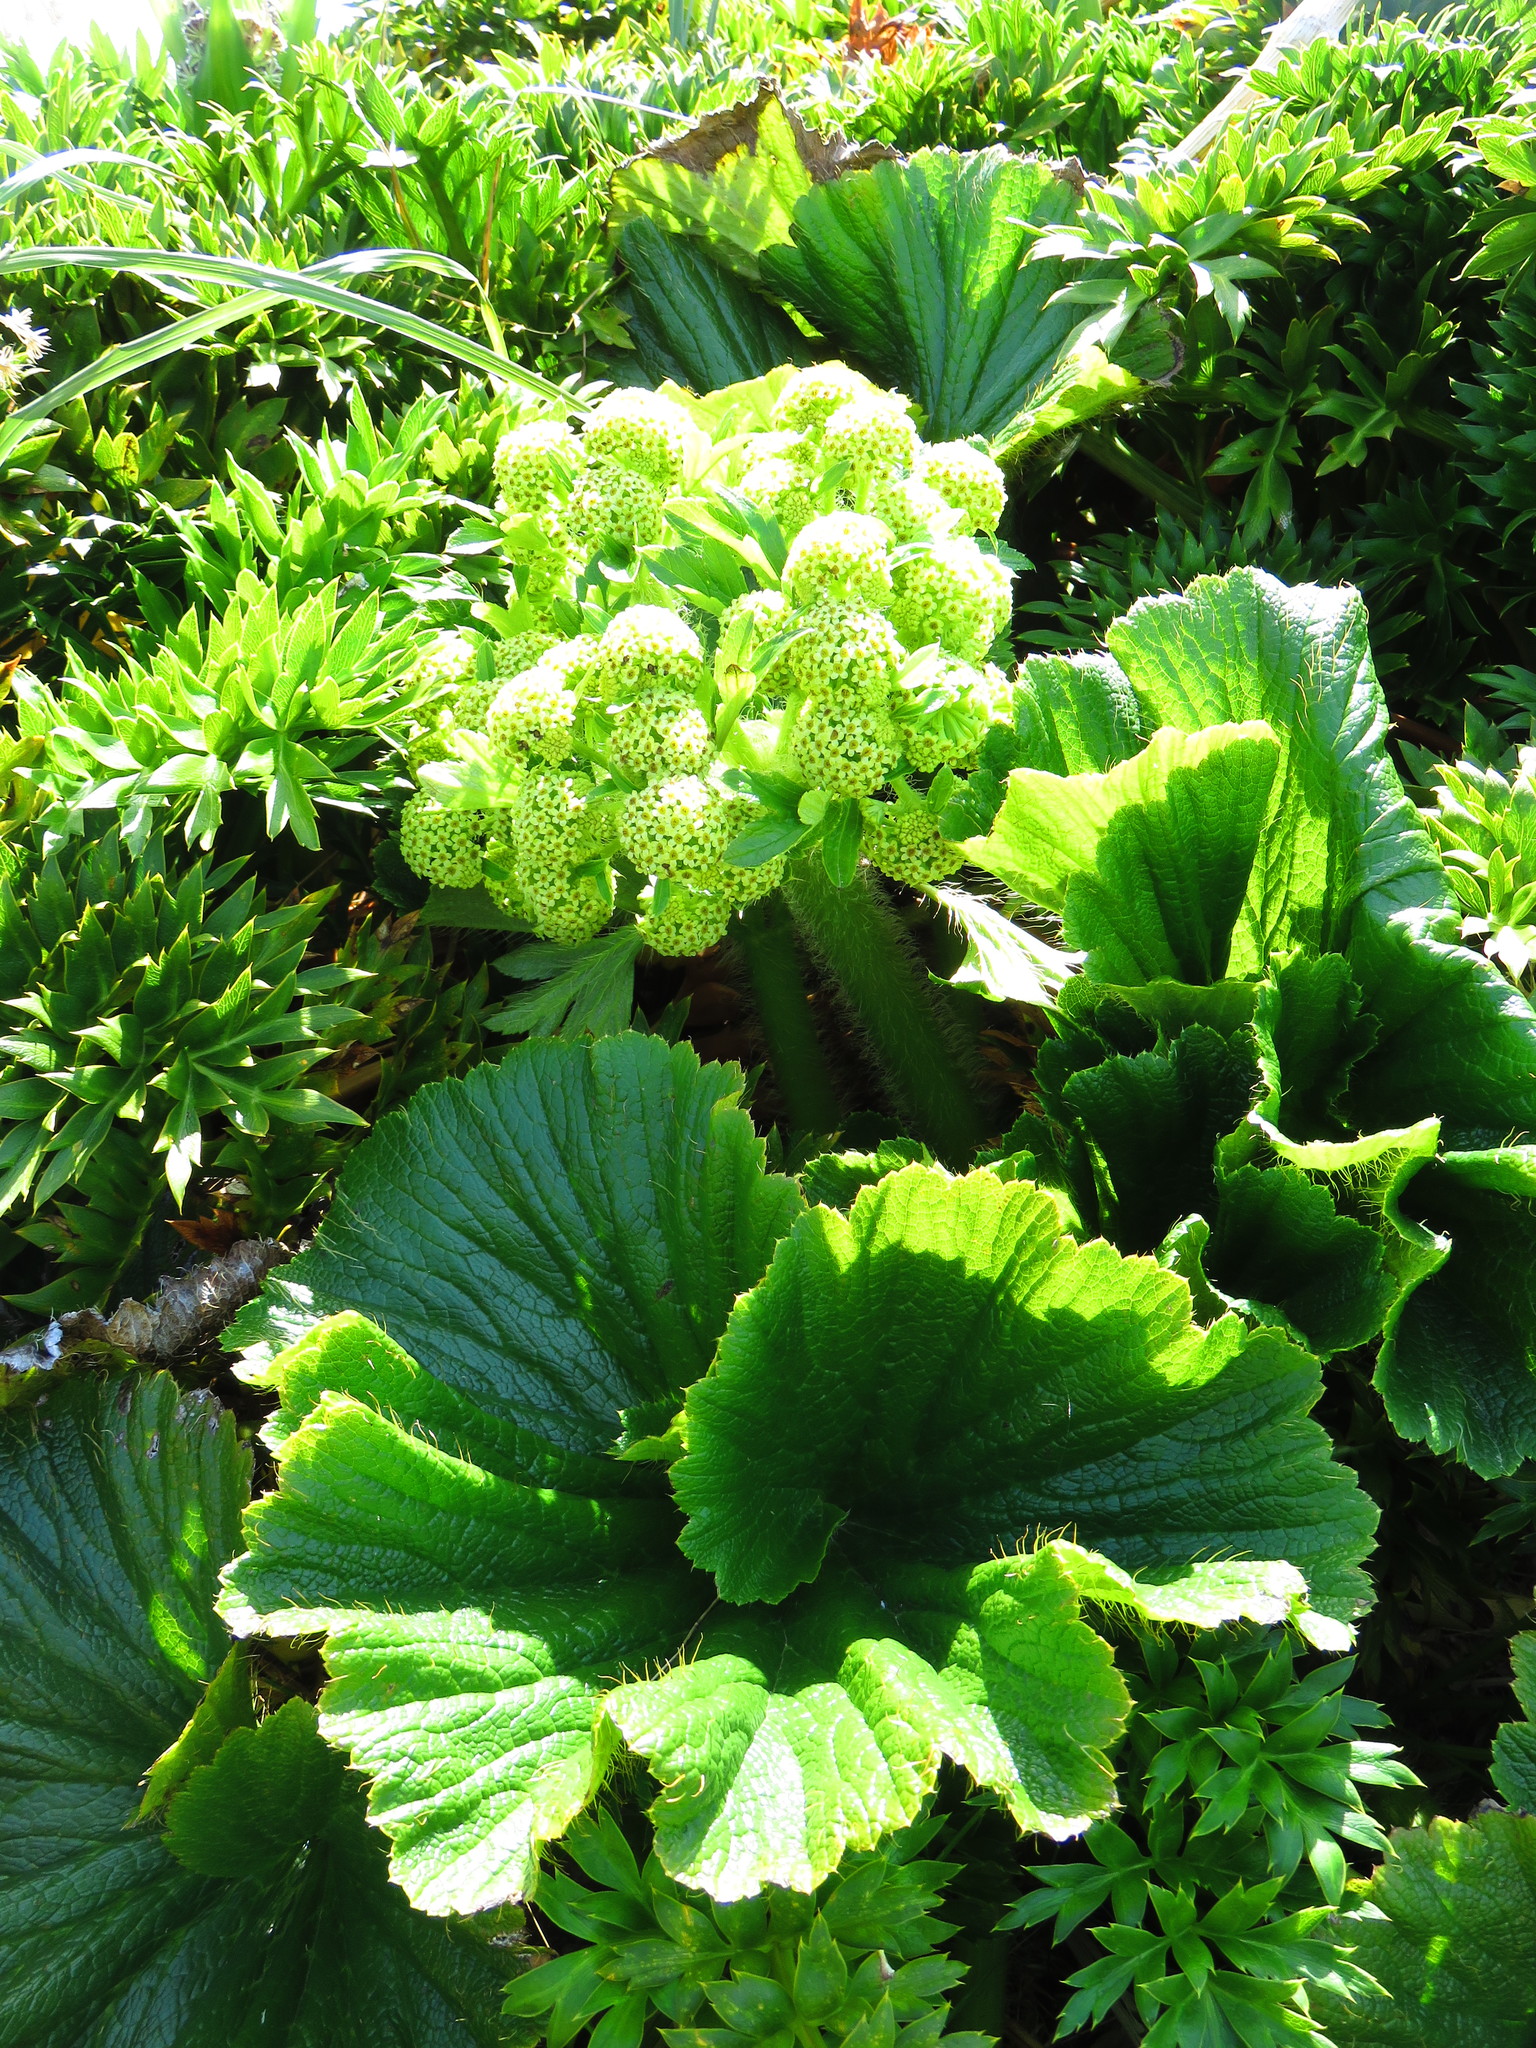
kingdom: Plantae
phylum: Tracheophyta
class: Magnoliopsida
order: Apiales
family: Apiaceae
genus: Azorella
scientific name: Azorella polaris
